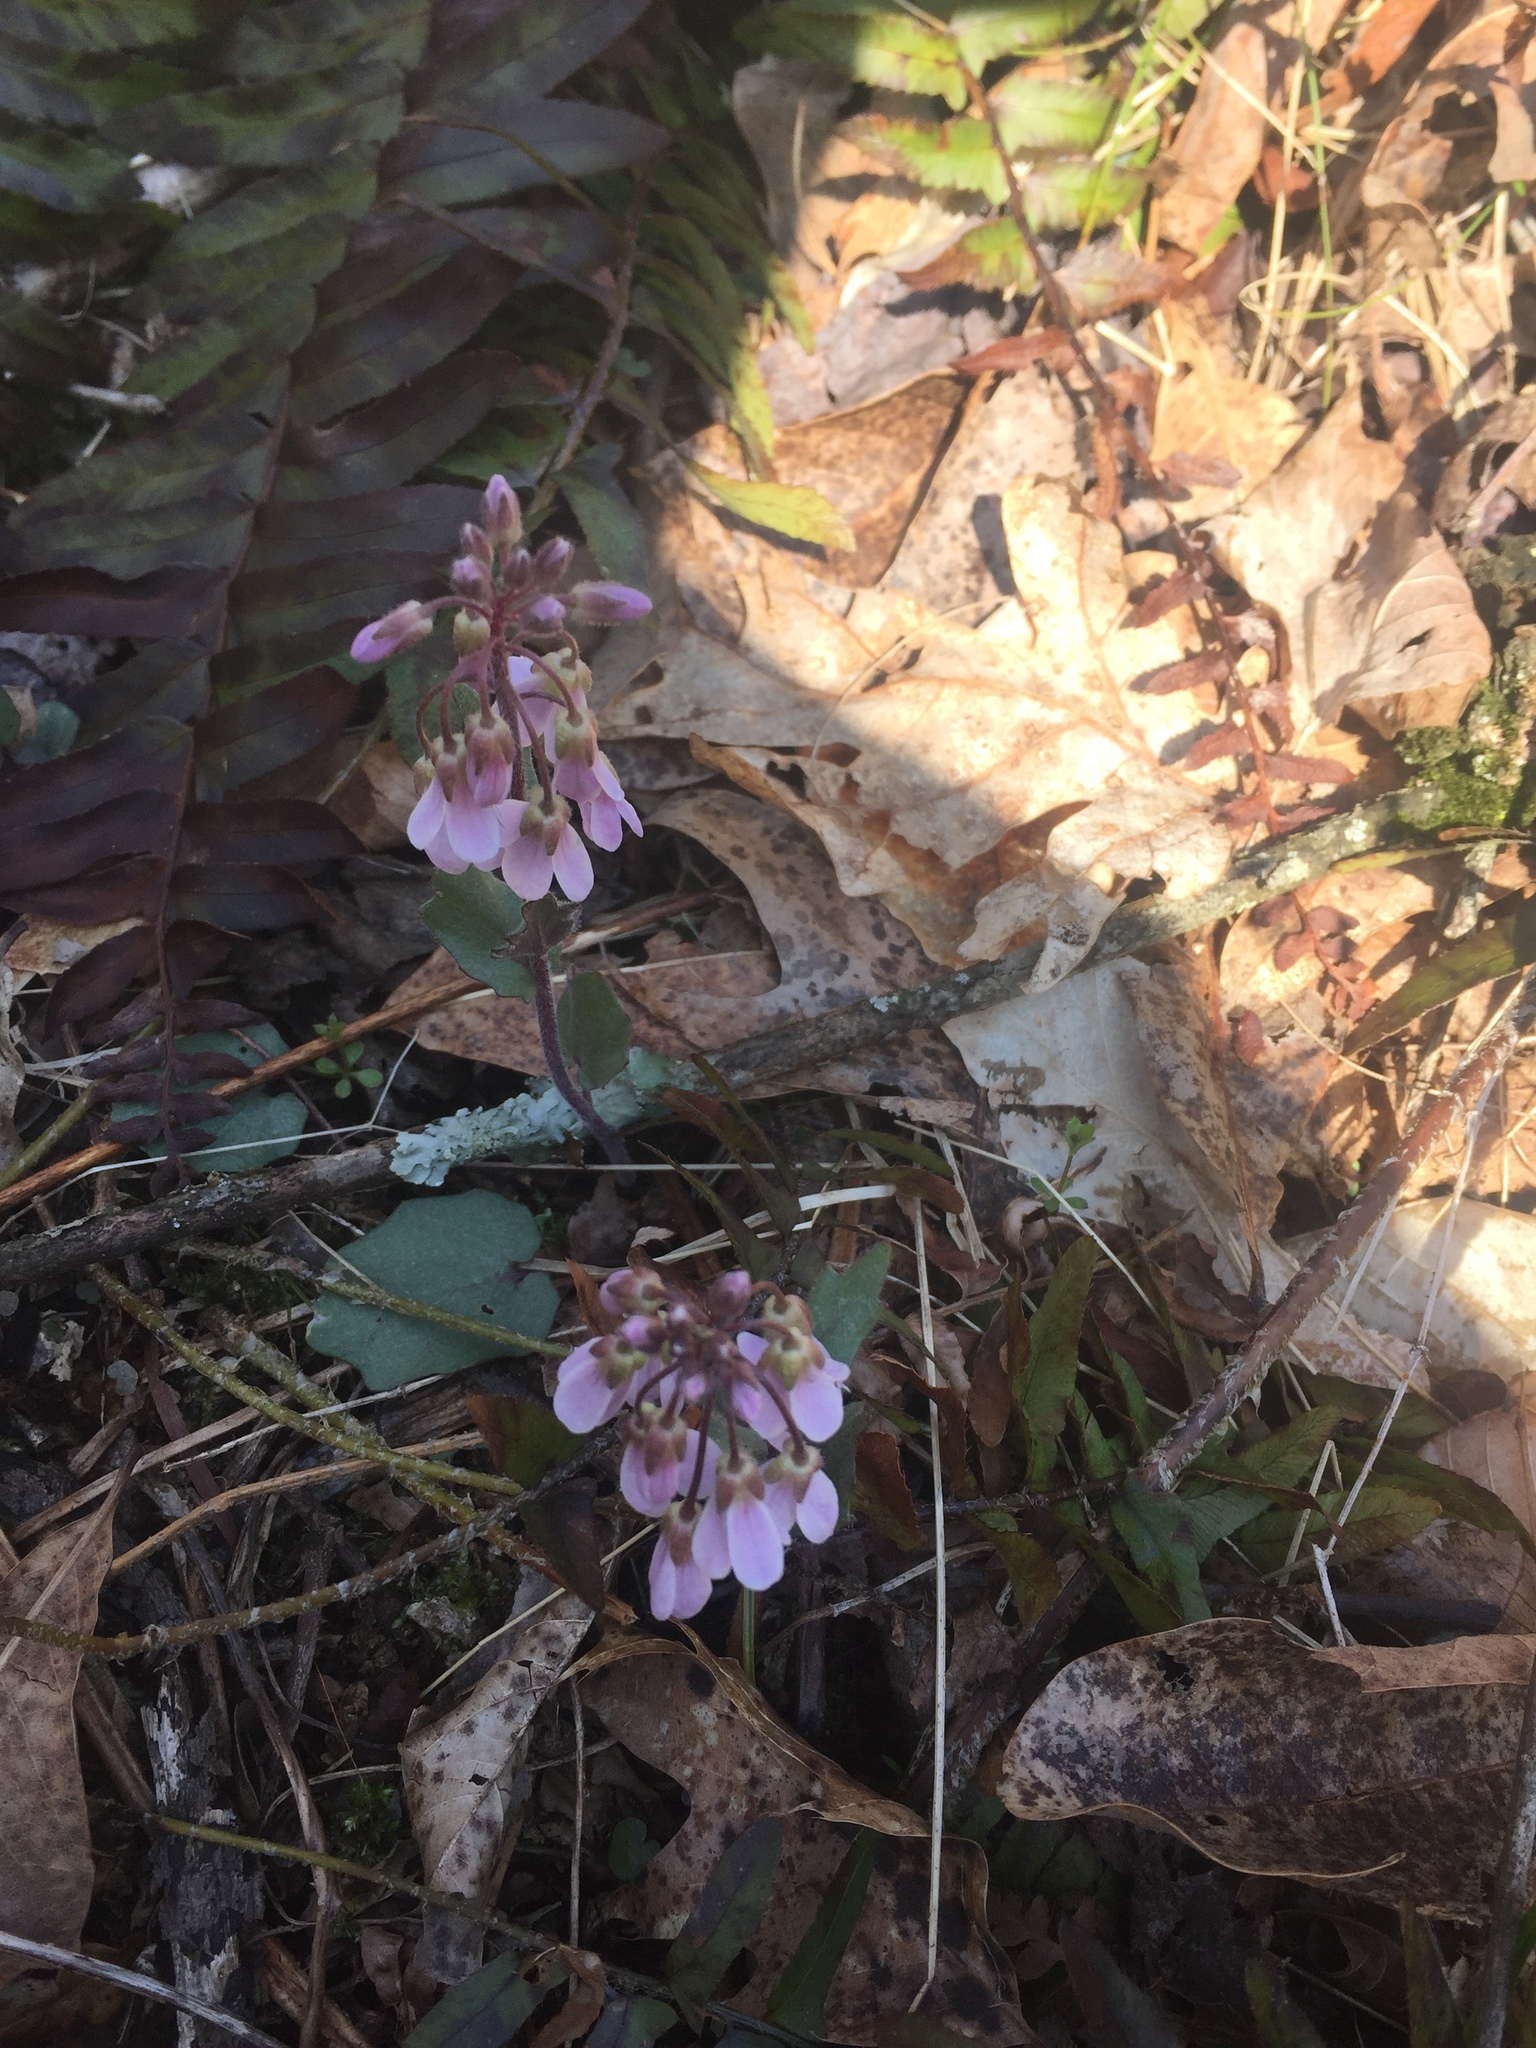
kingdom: Plantae
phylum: Tracheophyta
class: Magnoliopsida
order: Brassicales
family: Brassicaceae
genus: Cardamine
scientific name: Cardamine douglassii
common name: Purple cress
